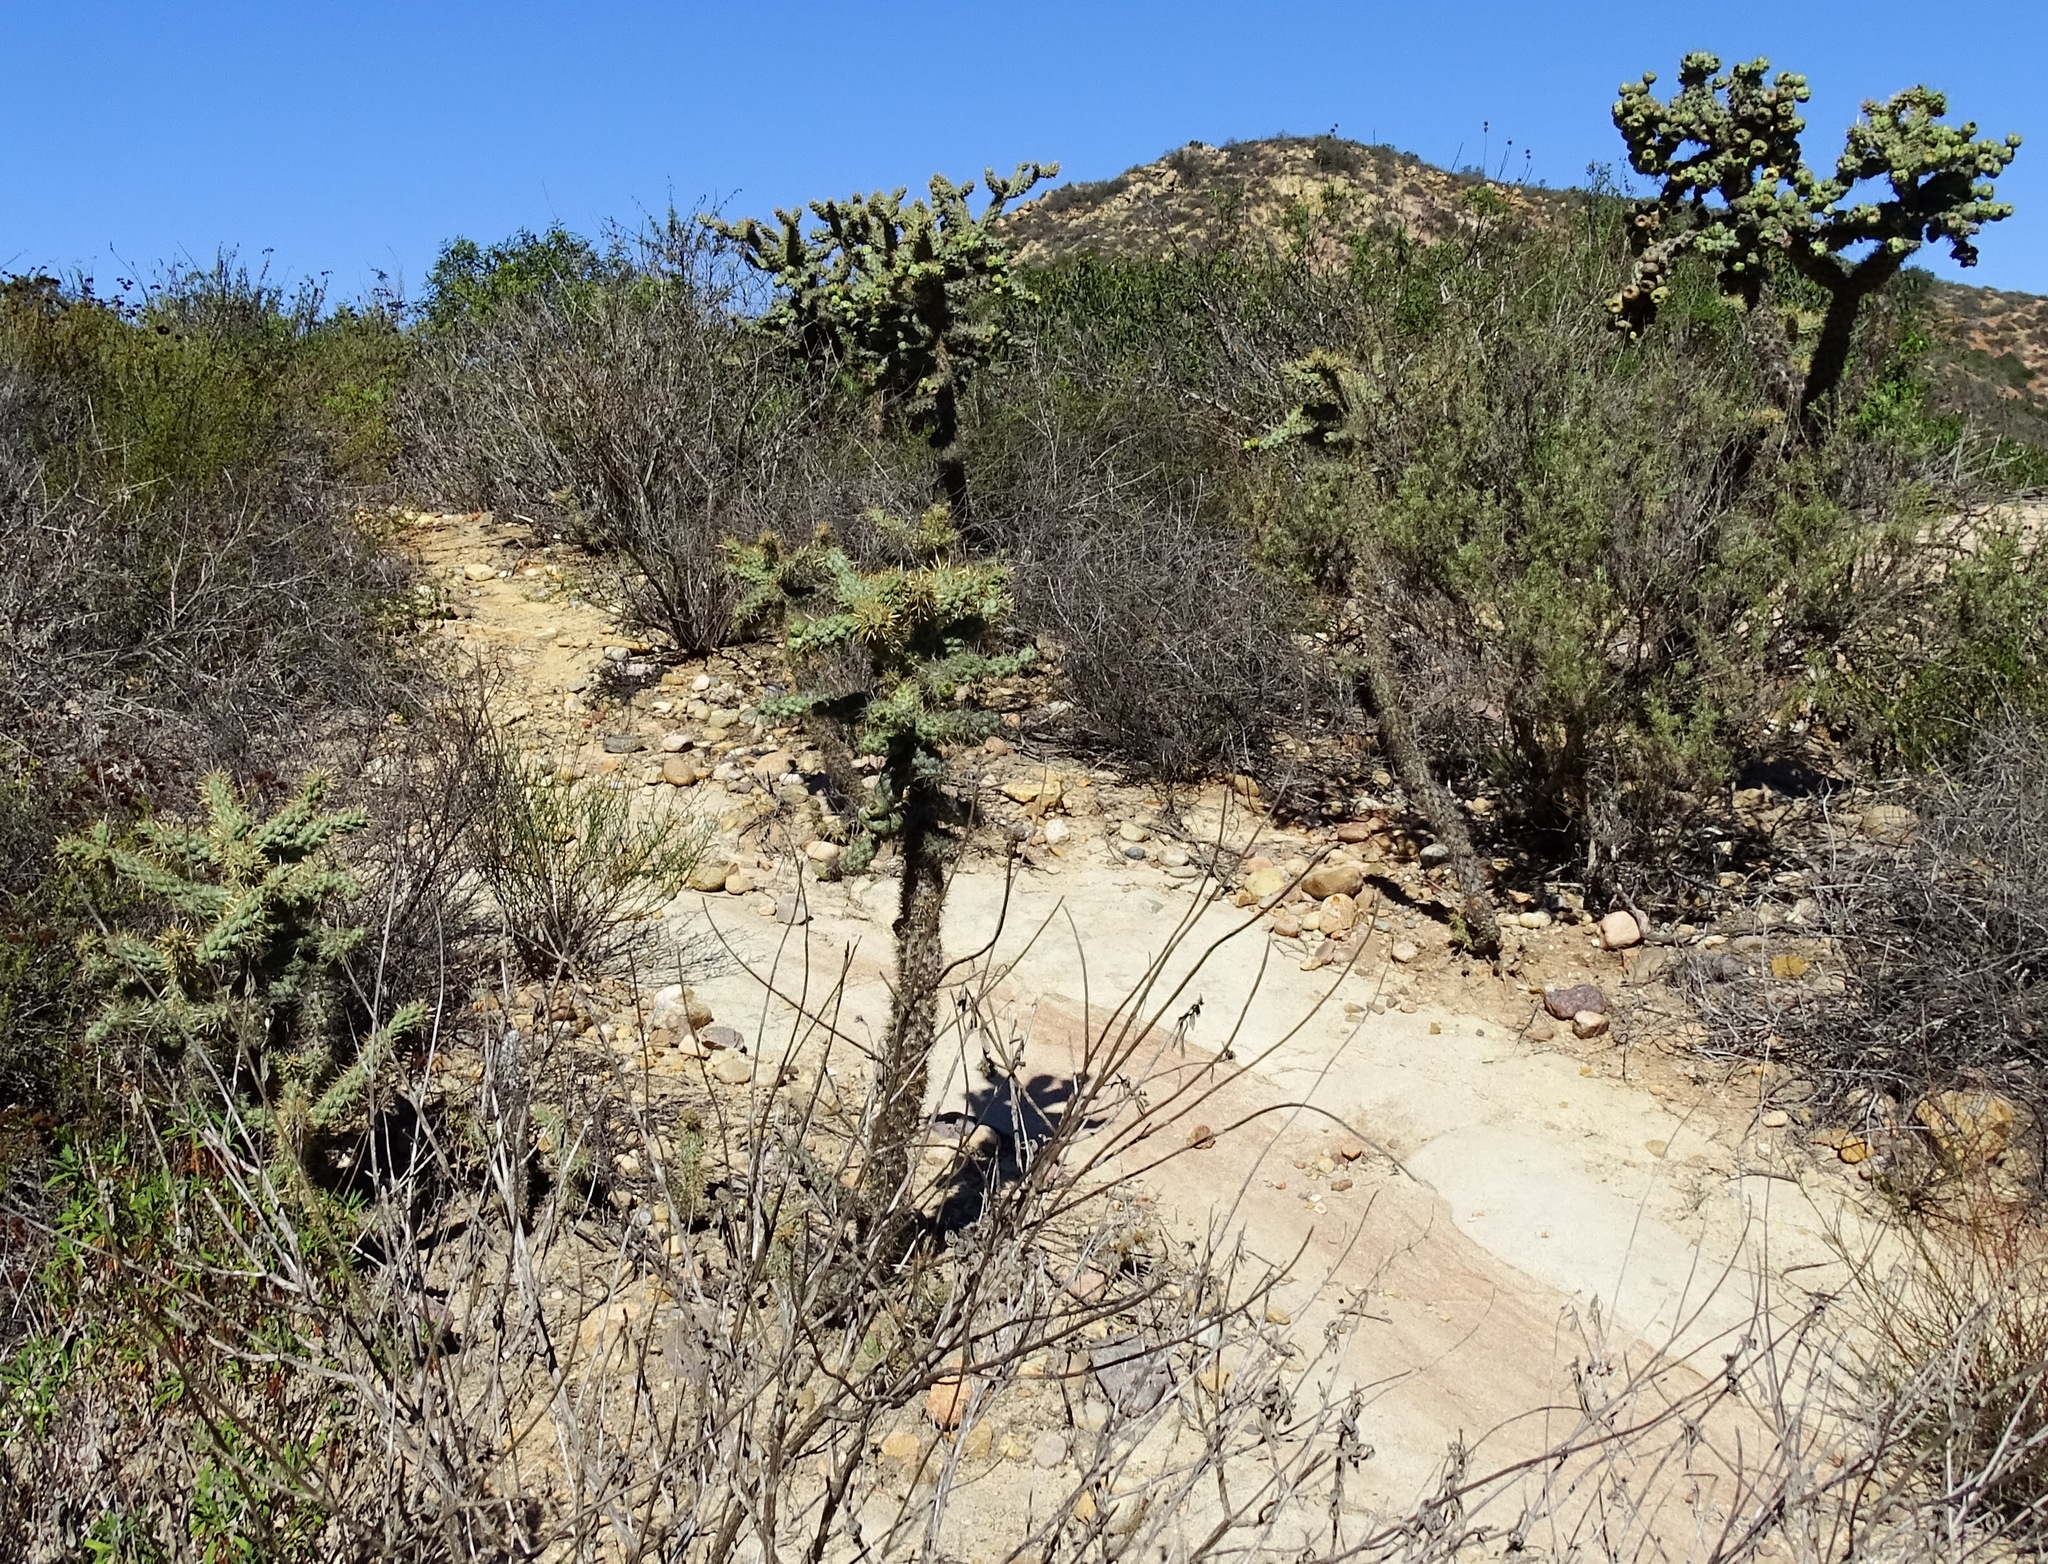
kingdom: Plantae
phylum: Tracheophyta
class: Magnoliopsida
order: Caryophyllales
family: Cactaceae
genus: Cylindropuntia
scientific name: Cylindropuntia prolifera
